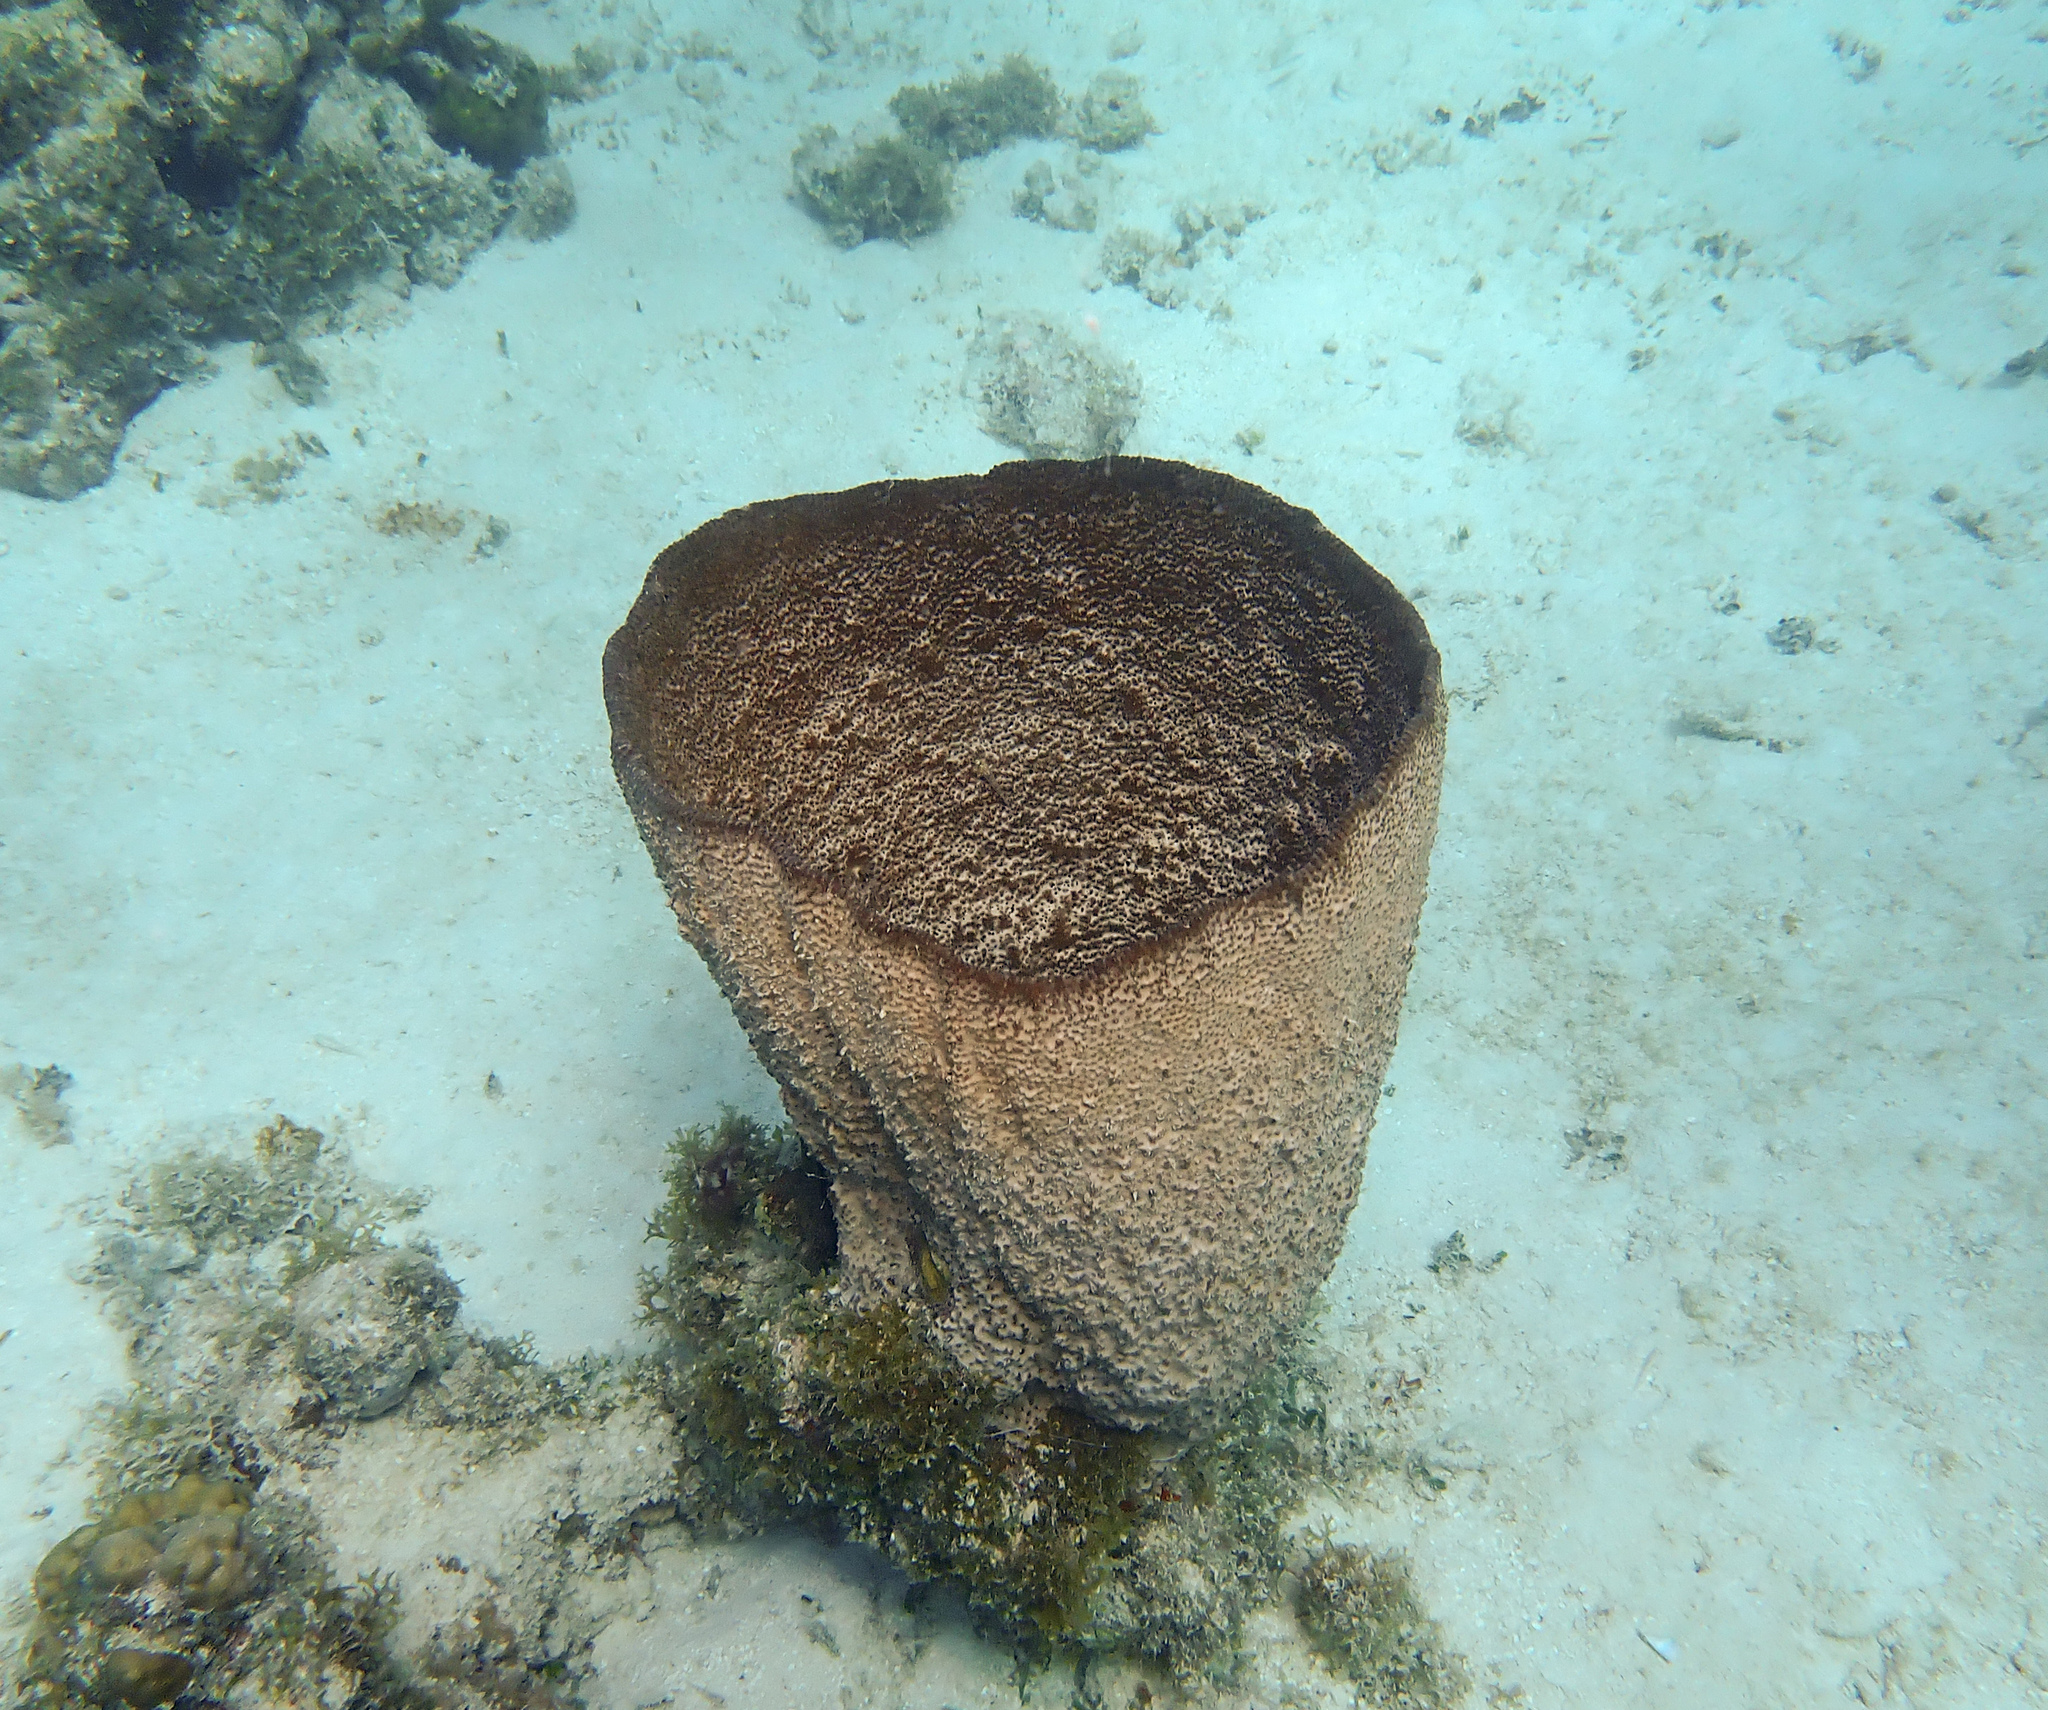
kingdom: Animalia
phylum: Porifera
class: Demospongiae
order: Dictyoceratida
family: Irciniidae
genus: Ircinia
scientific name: Ircinia campana
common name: Vase sponge
